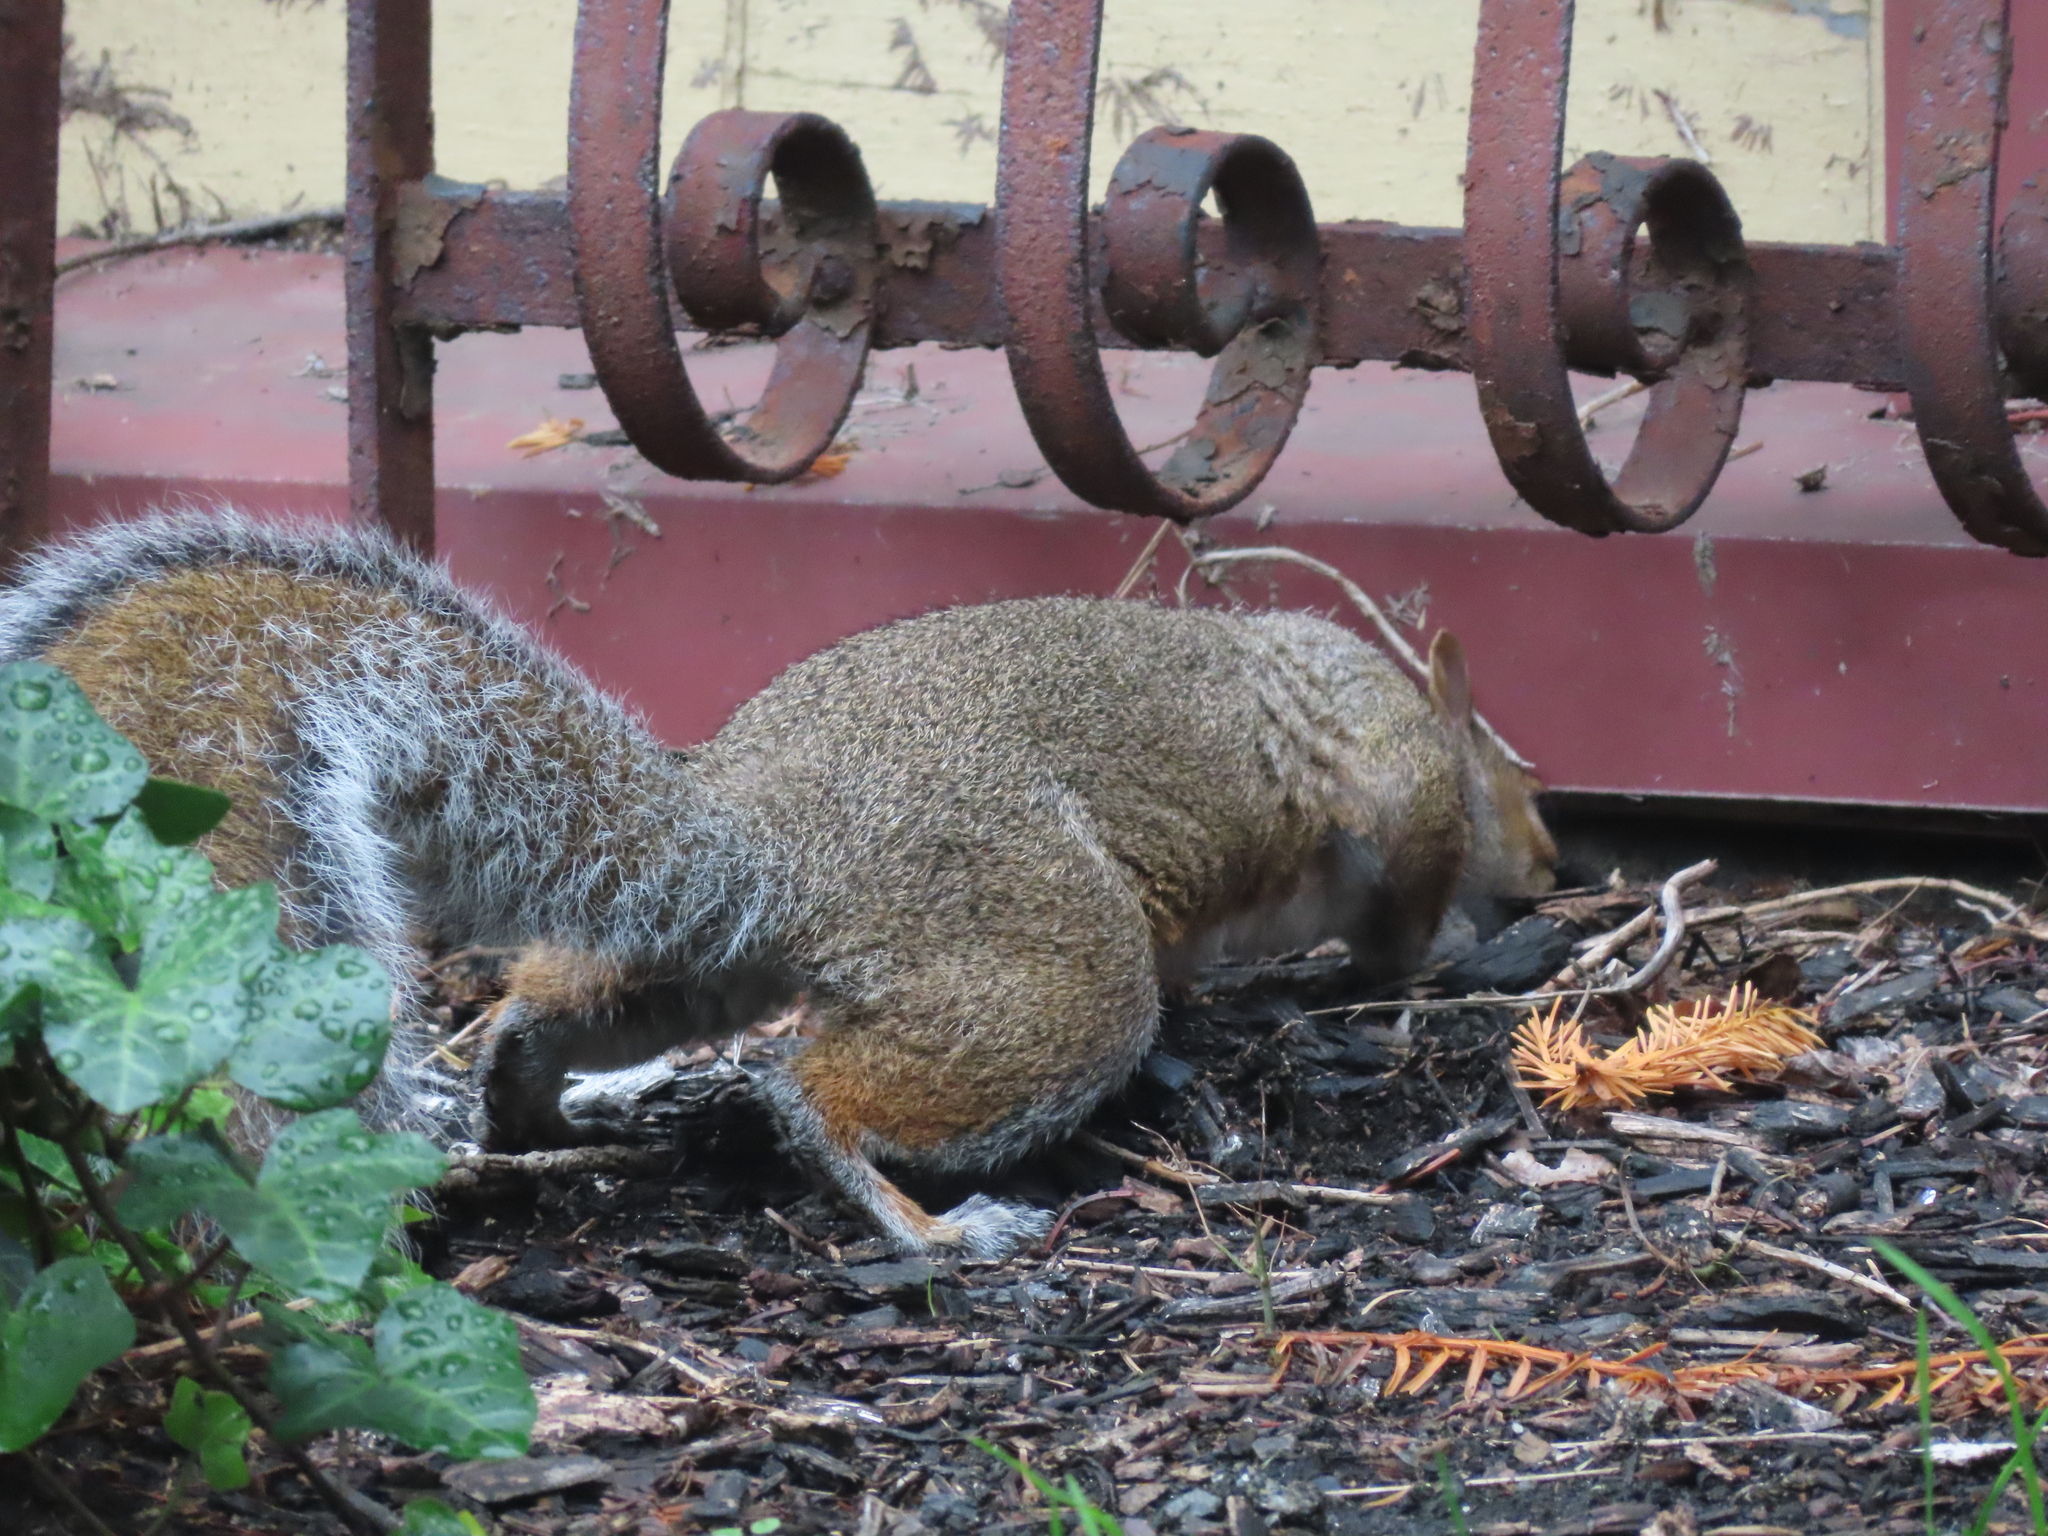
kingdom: Animalia
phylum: Chordata
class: Mammalia
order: Rodentia
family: Sciuridae
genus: Sciurus
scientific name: Sciurus carolinensis
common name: Eastern gray squirrel
